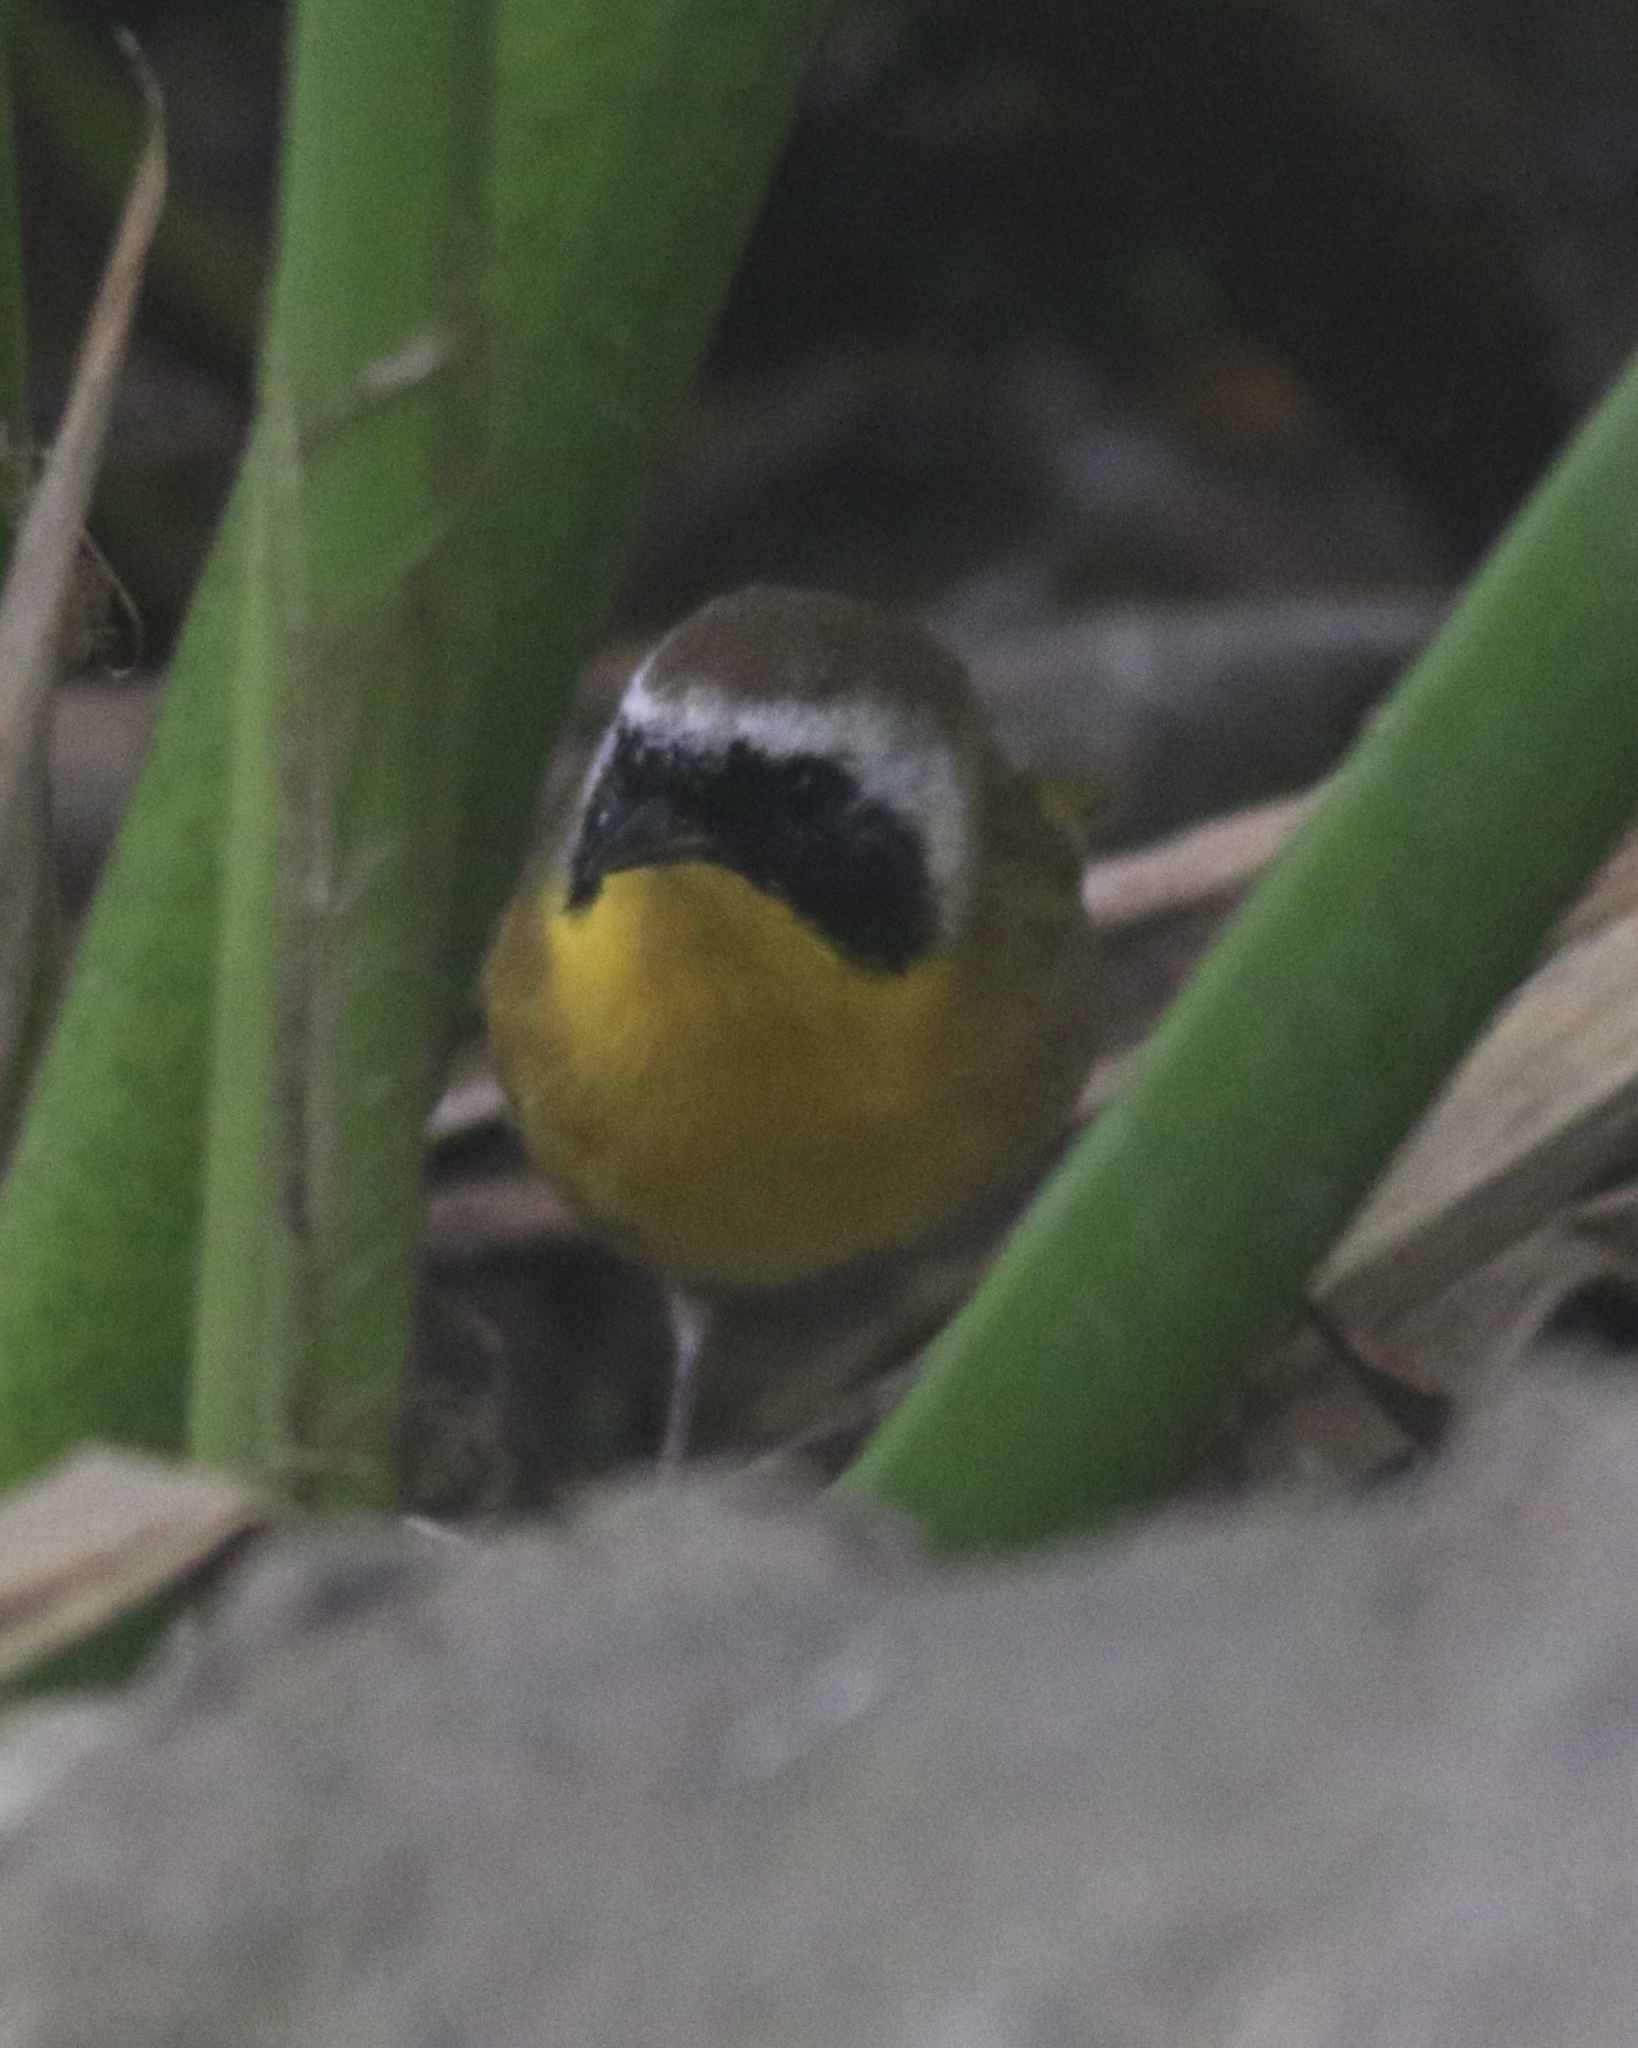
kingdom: Animalia
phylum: Chordata
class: Aves
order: Passeriformes
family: Parulidae
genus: Geothlypis
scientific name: Geothlypis trichas
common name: Common yellowthroat
